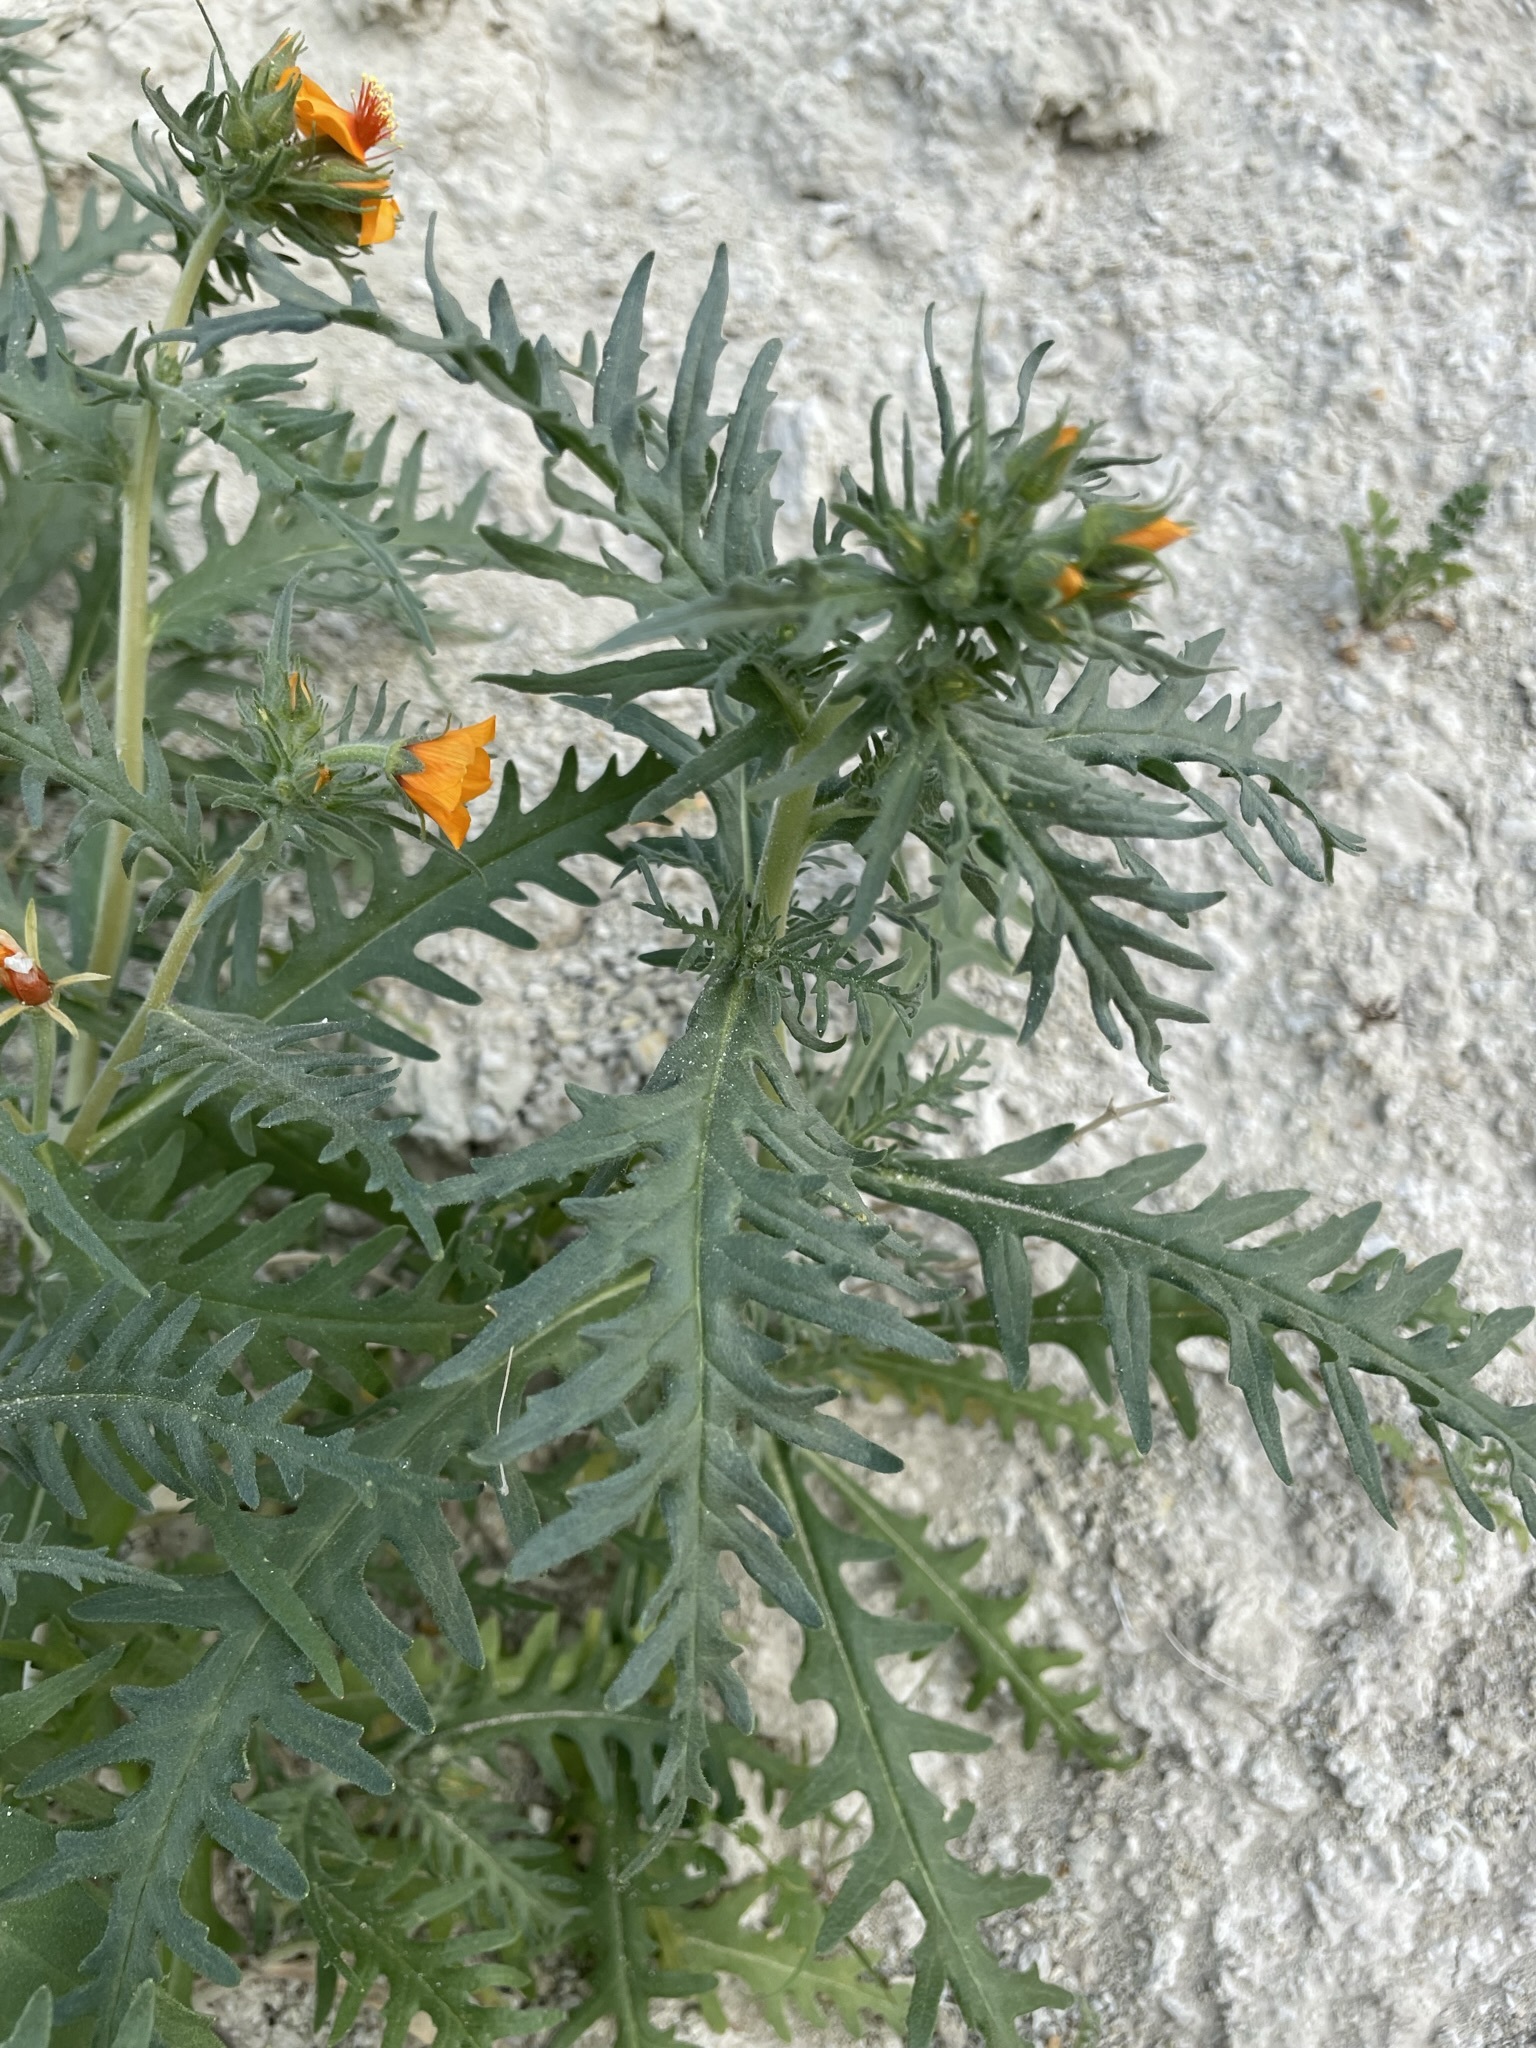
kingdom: Plantae
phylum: Tracheophyta
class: Magnoliopsida
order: Cornales
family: Loasaceae
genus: Mentzelia
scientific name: Mentzelia pectinata
